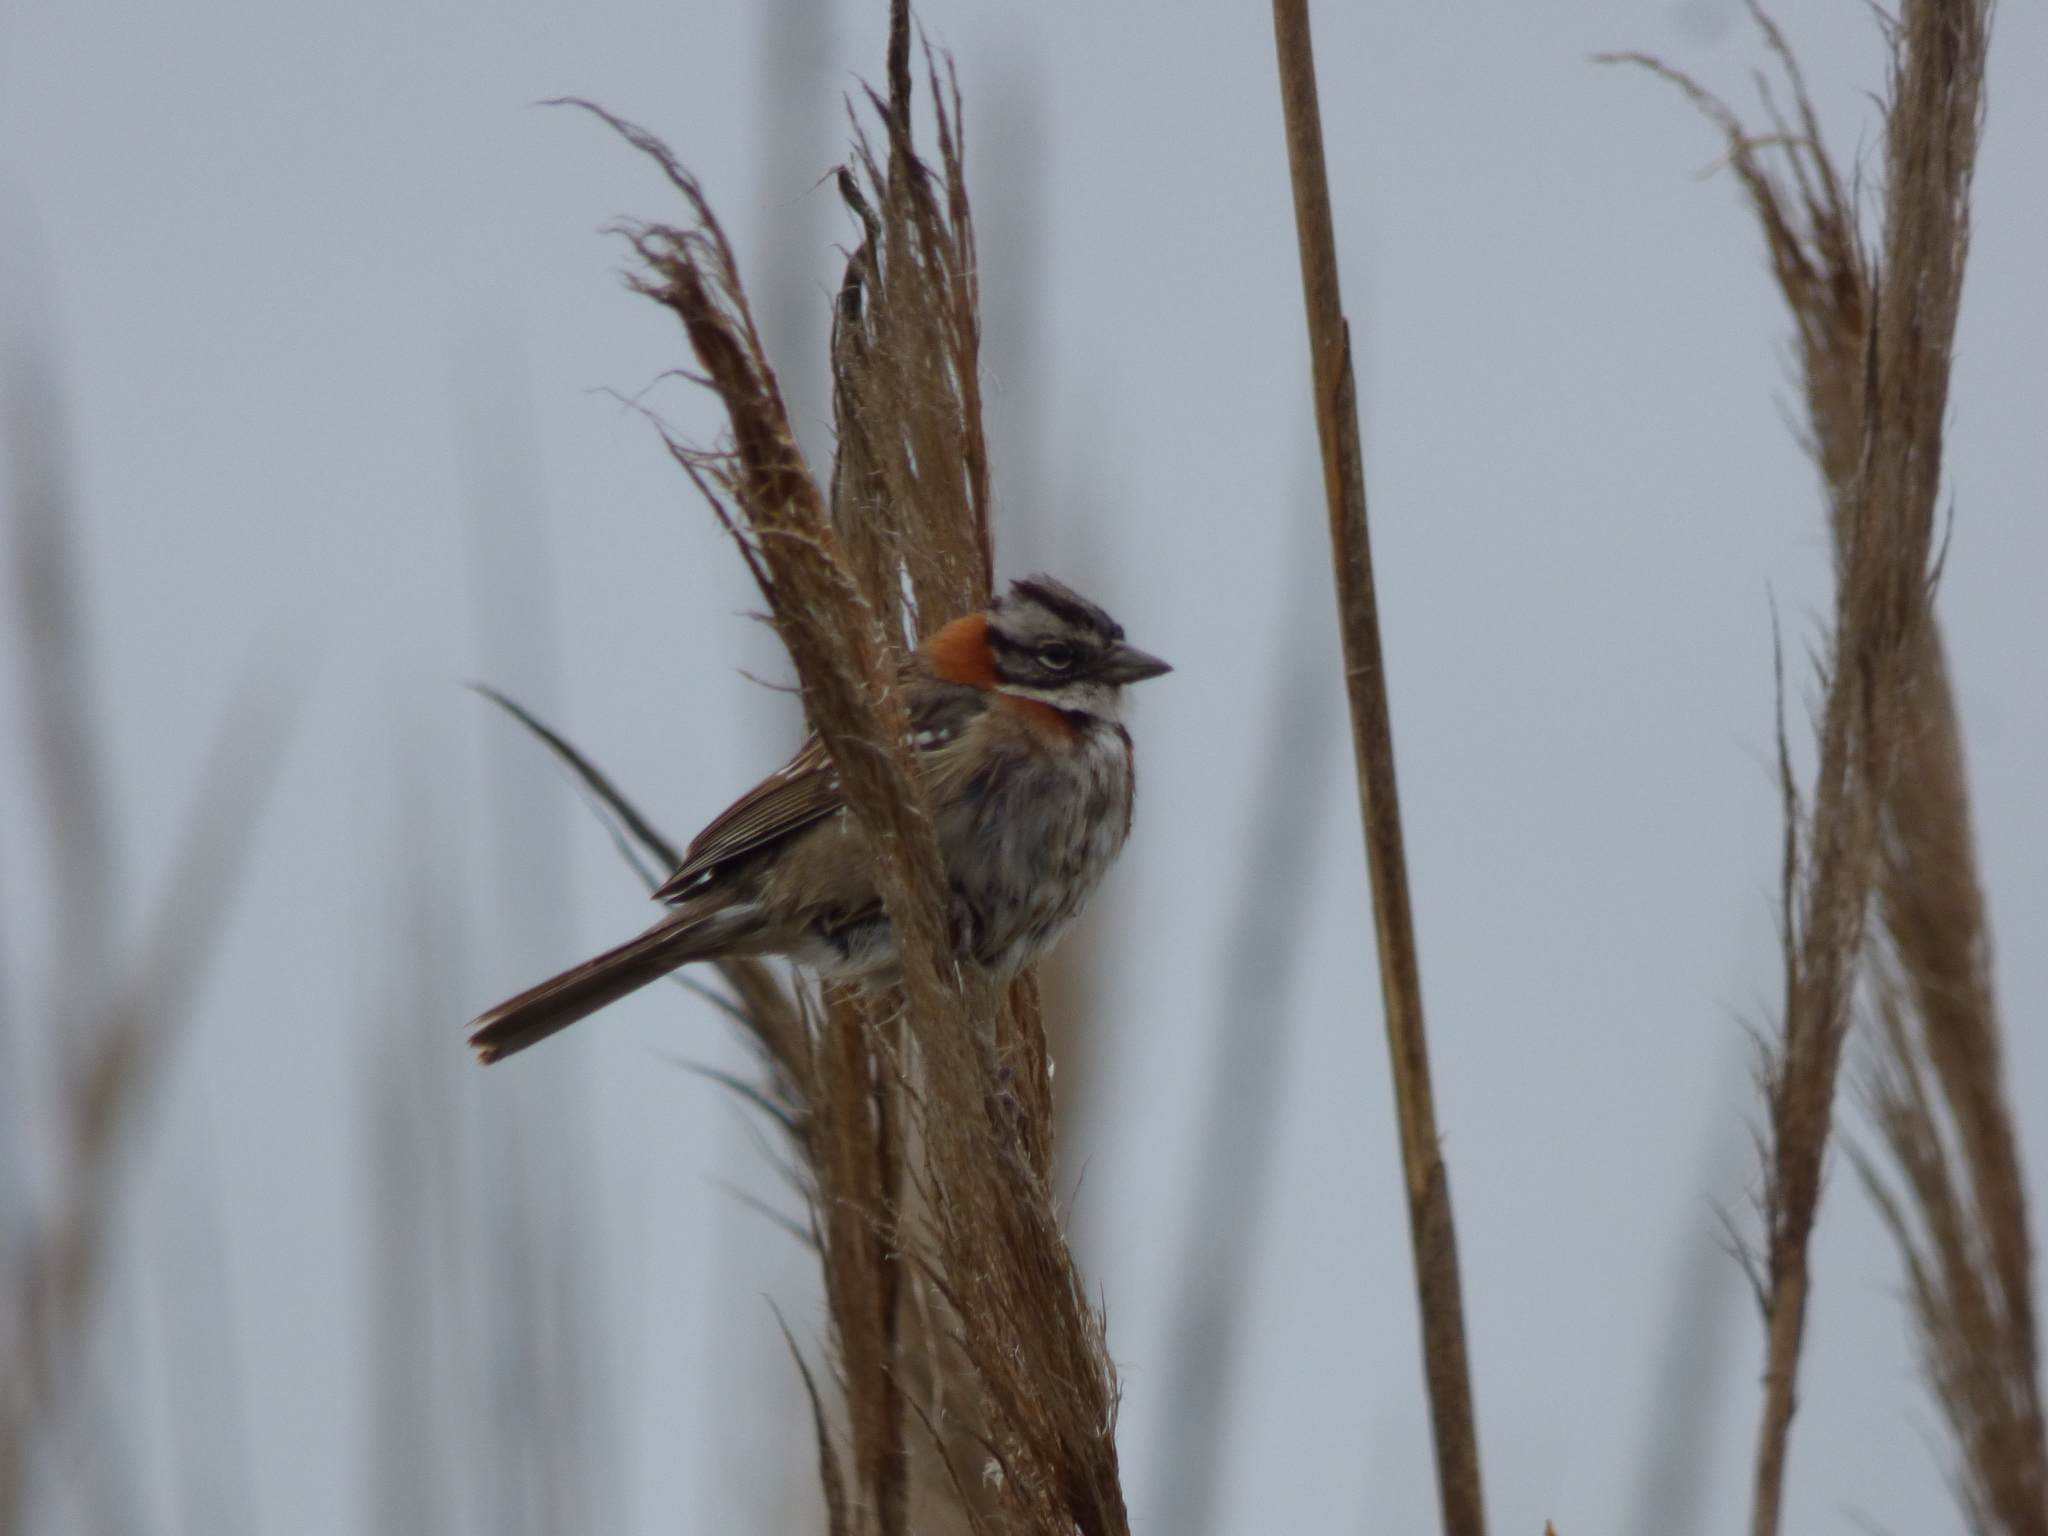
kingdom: Animalia
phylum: Chordata
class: Aves
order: Passeriformes
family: Passerellidae
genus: Zonotrichia
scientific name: Zonotrichia capensis
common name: Rufous-collared sparrow
